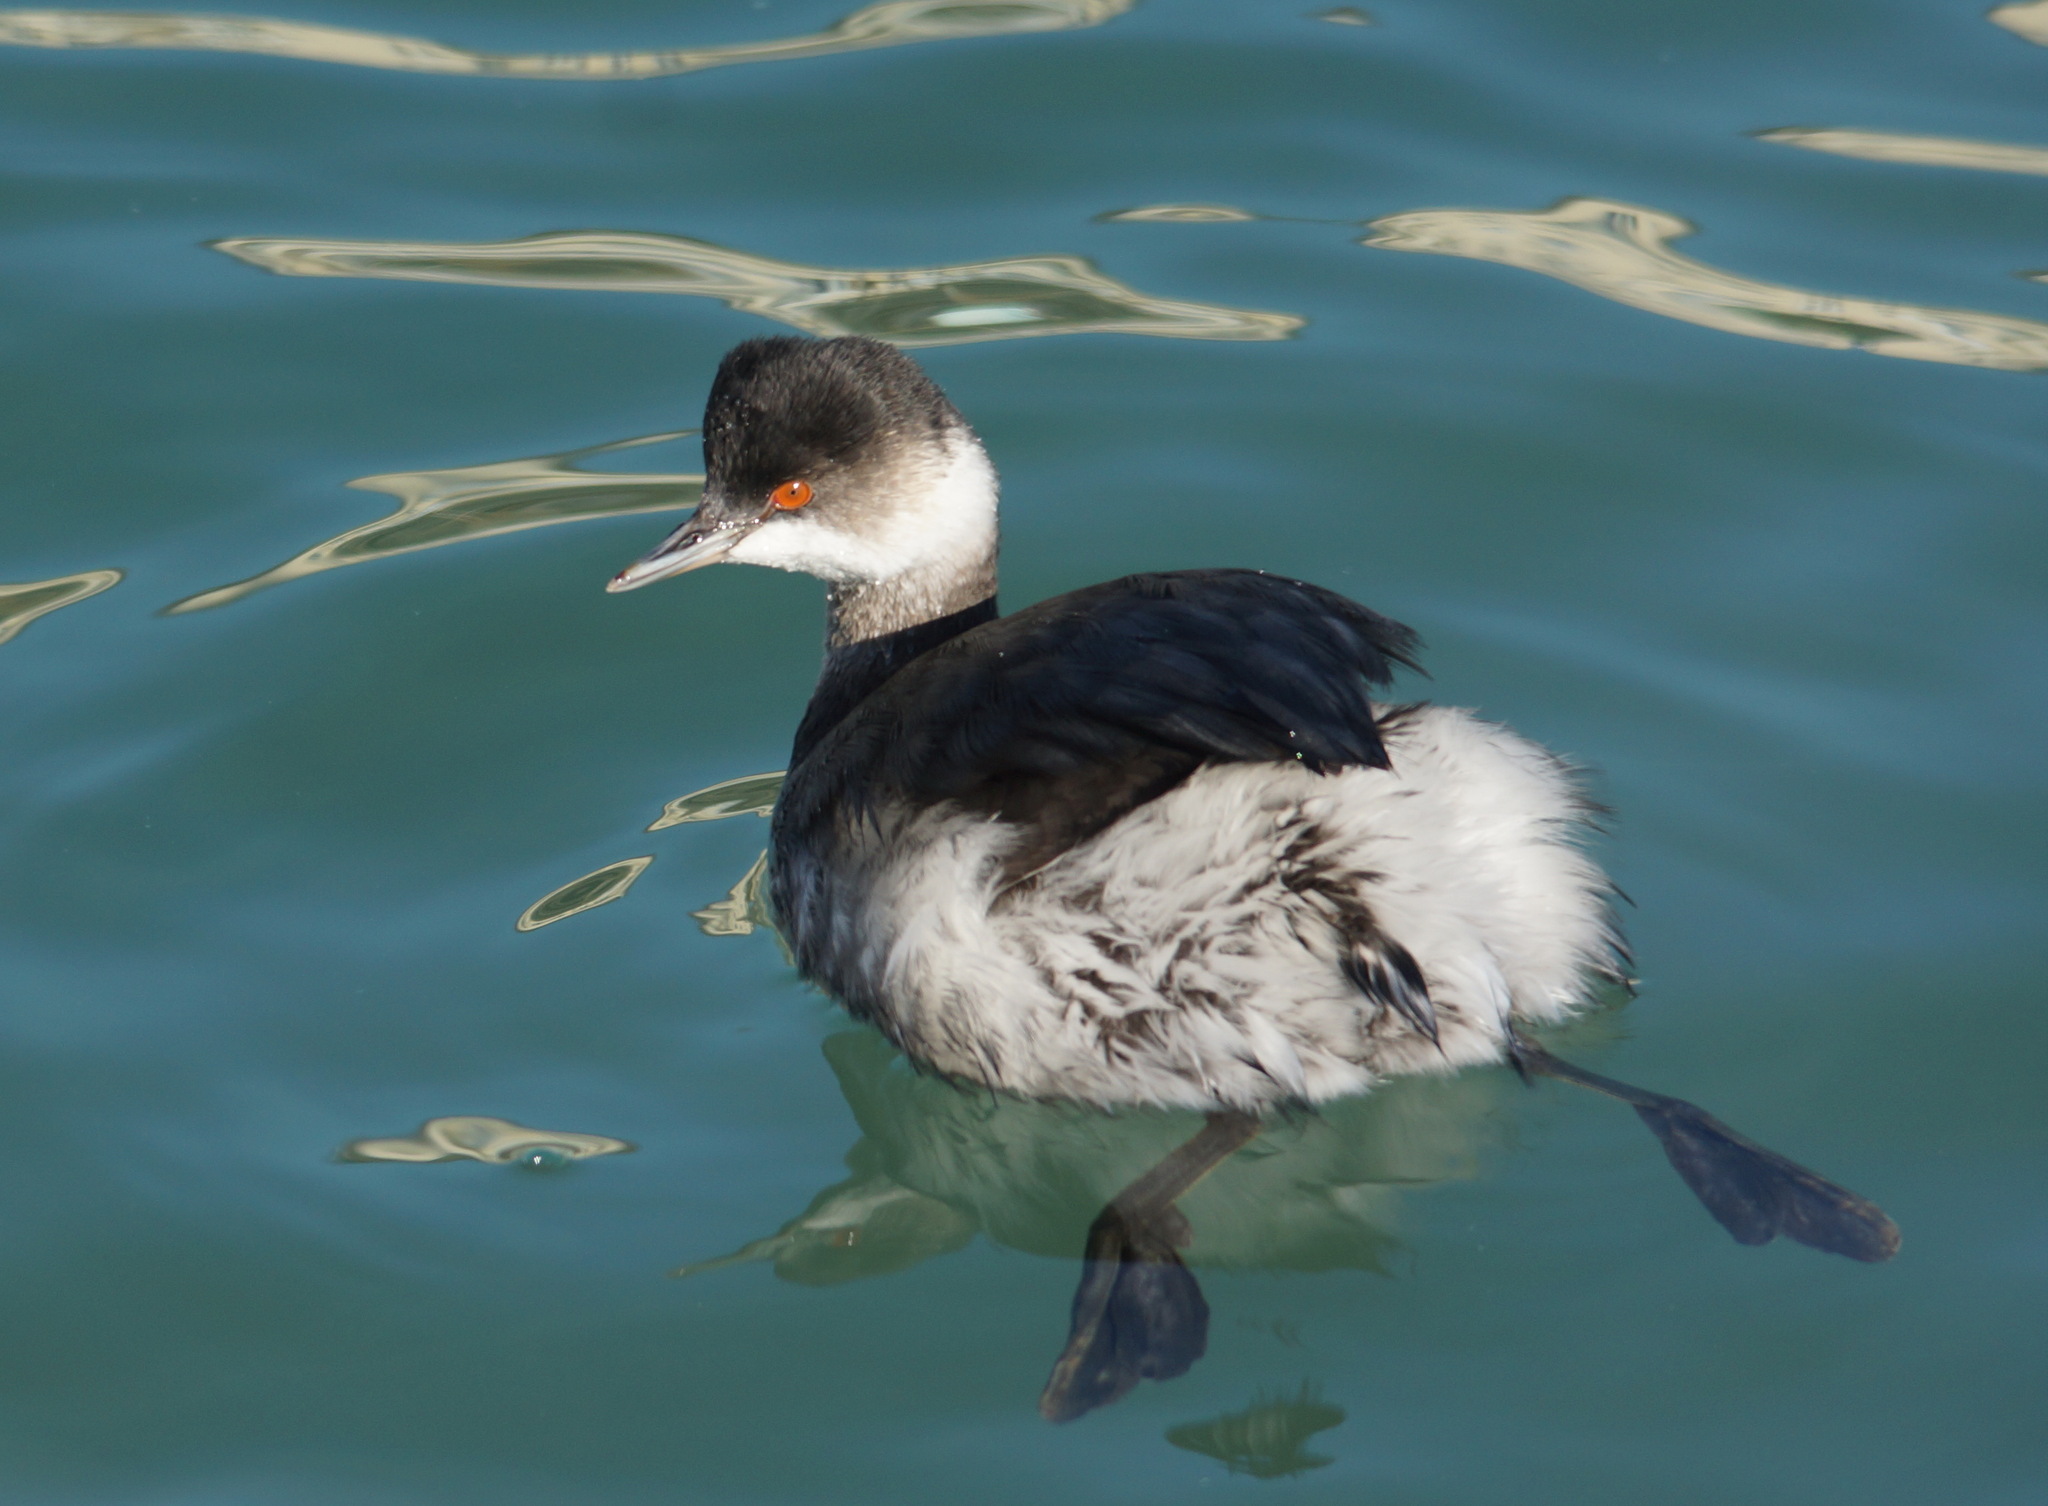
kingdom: Animalia
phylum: Chordata
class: Aves
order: Podicipediformes
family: Podicipedidae
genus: Podiceps
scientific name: Podiceps nigricollis
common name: Black-necked grebe
